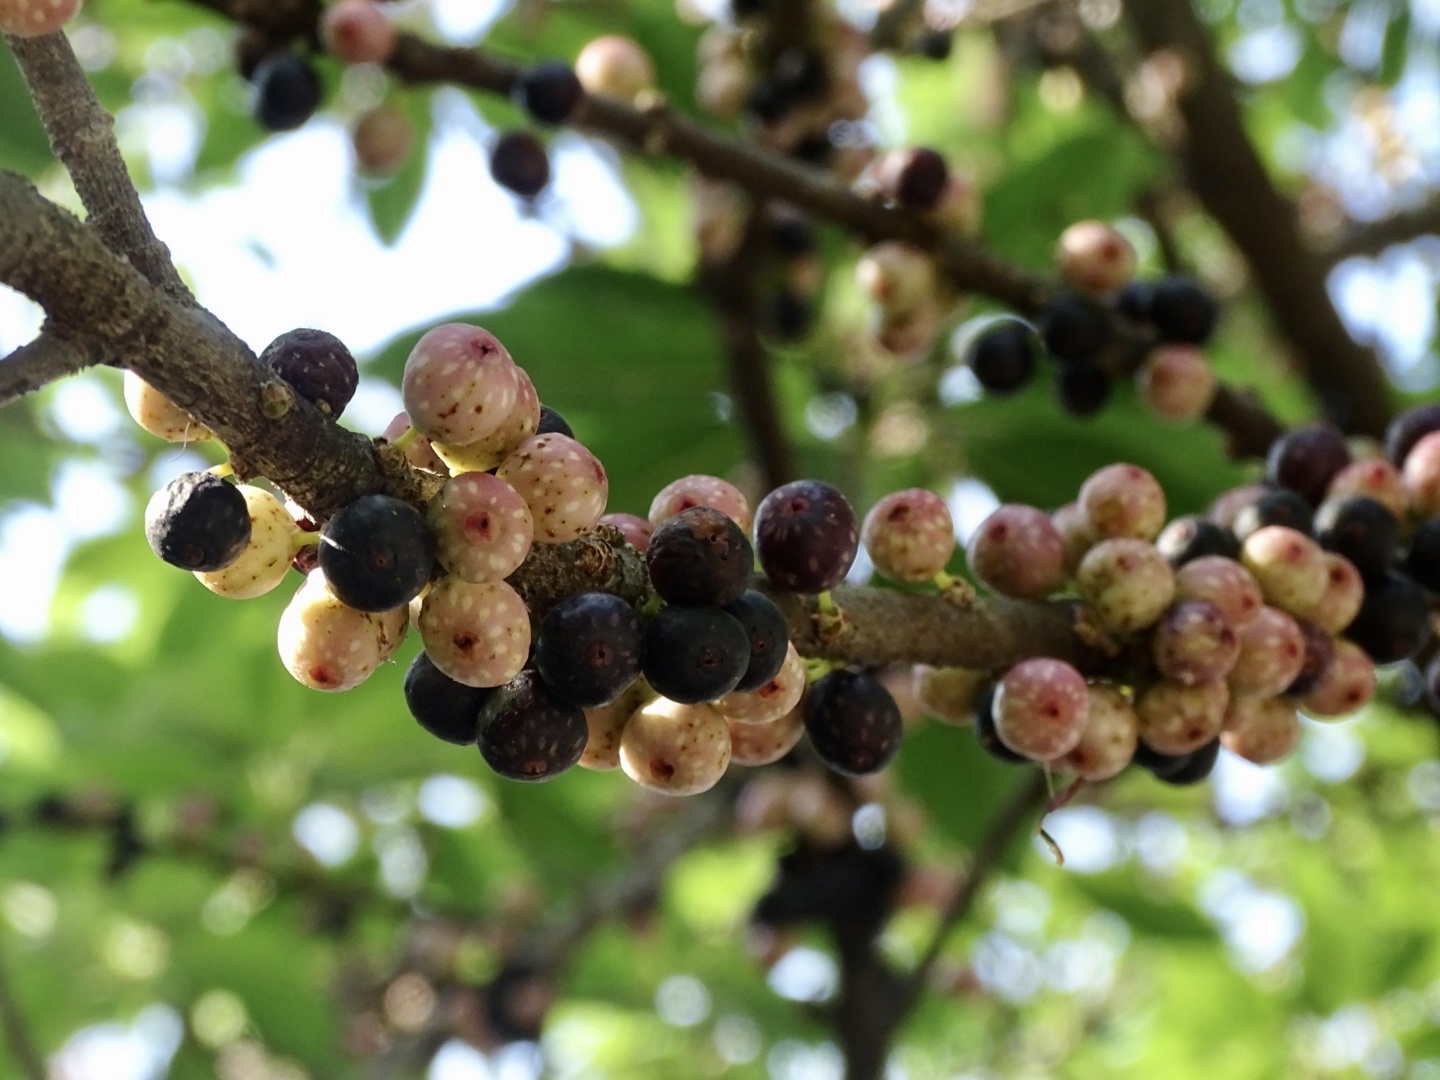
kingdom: Plantae
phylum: Tracheophyta
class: Magnoliopsida
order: Rosales
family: Moraceae
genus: Ficus
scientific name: Ficus subpisocarpa
